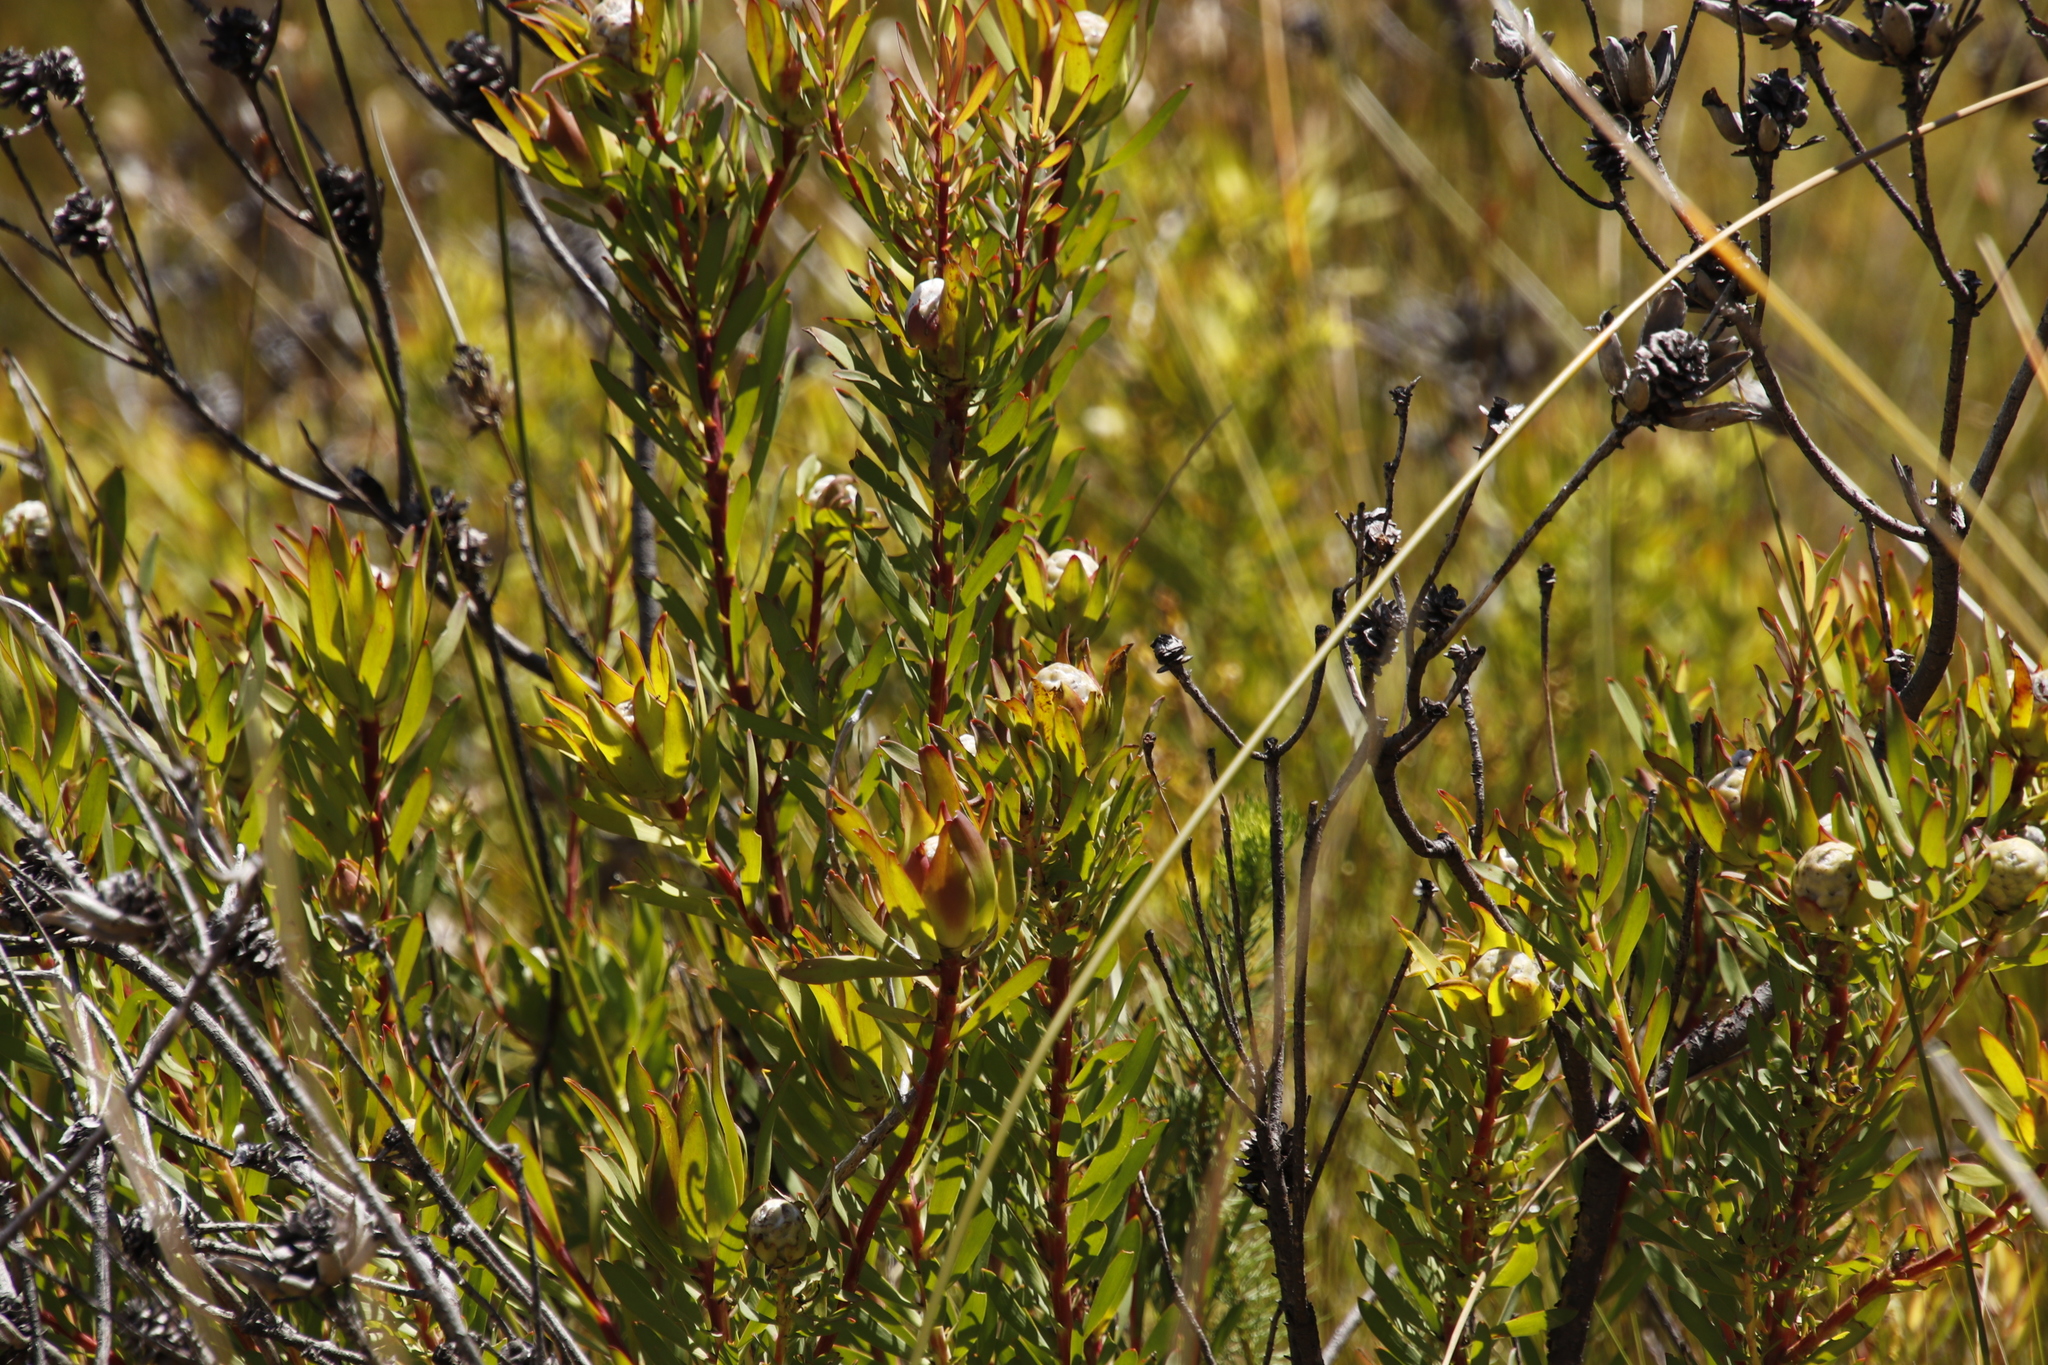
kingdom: Plantae
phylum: Tracheophyta
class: Magnoliopsida
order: Proteales
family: Proteaceae
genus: Leucadendron
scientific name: Leucadendron salignum
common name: Common sunshine conebush
